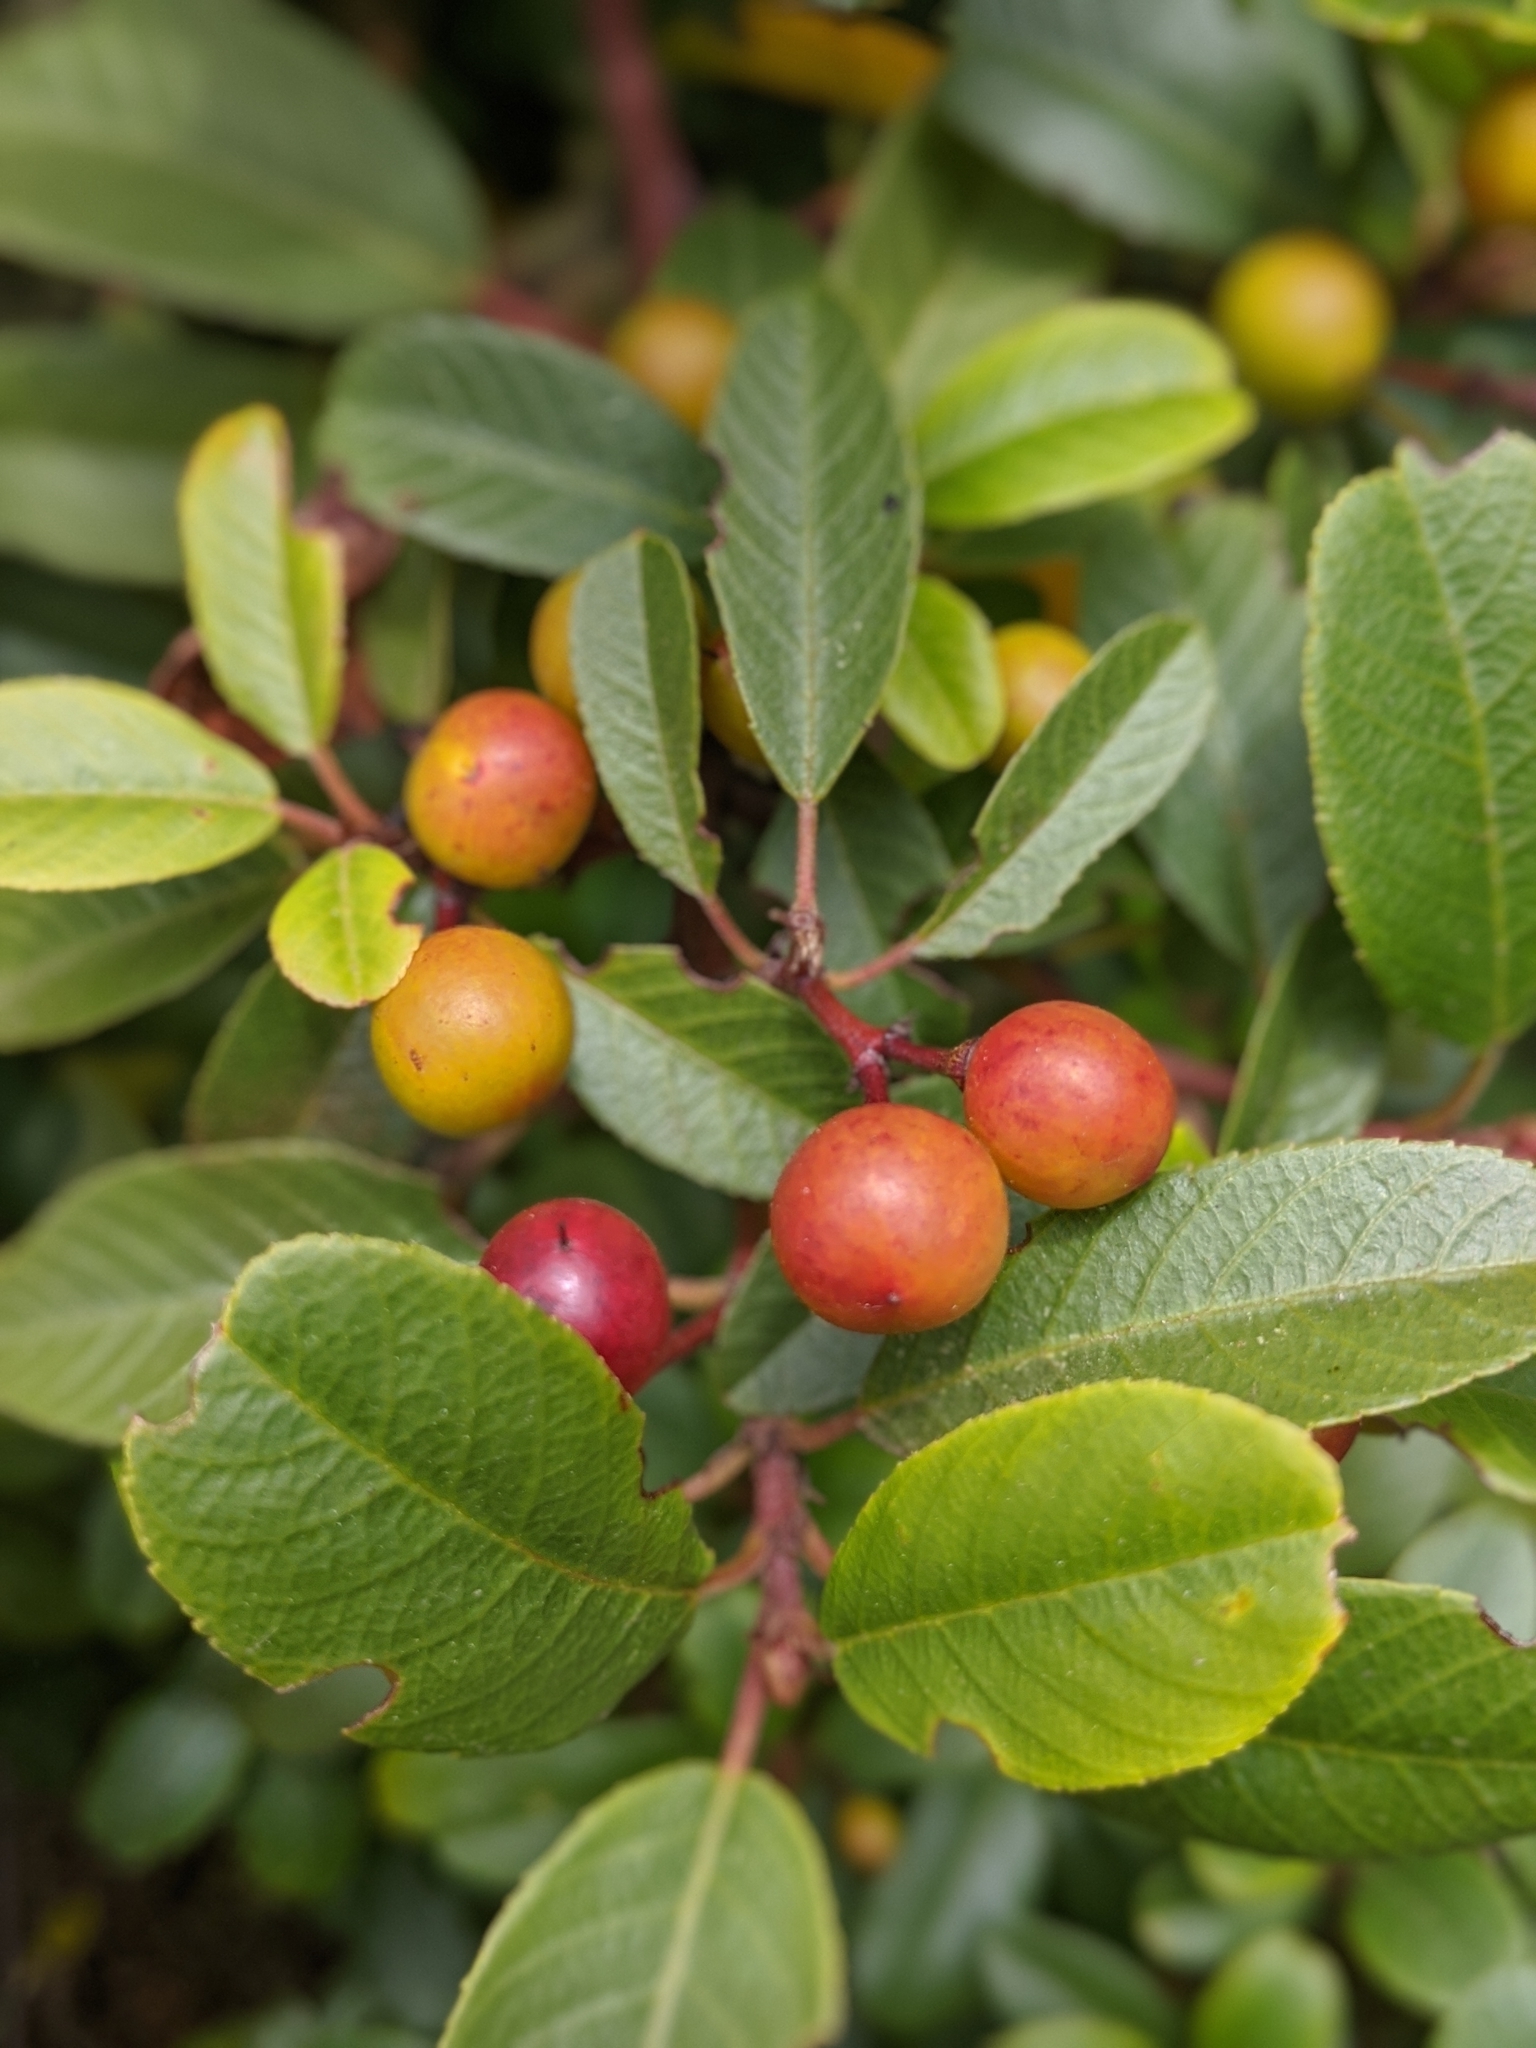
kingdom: Plantae
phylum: Tracheophyta
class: Magnoliopsida
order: Rosales
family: Rhamnaceae
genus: Frangula
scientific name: Frangula californica
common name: California buckthorn
